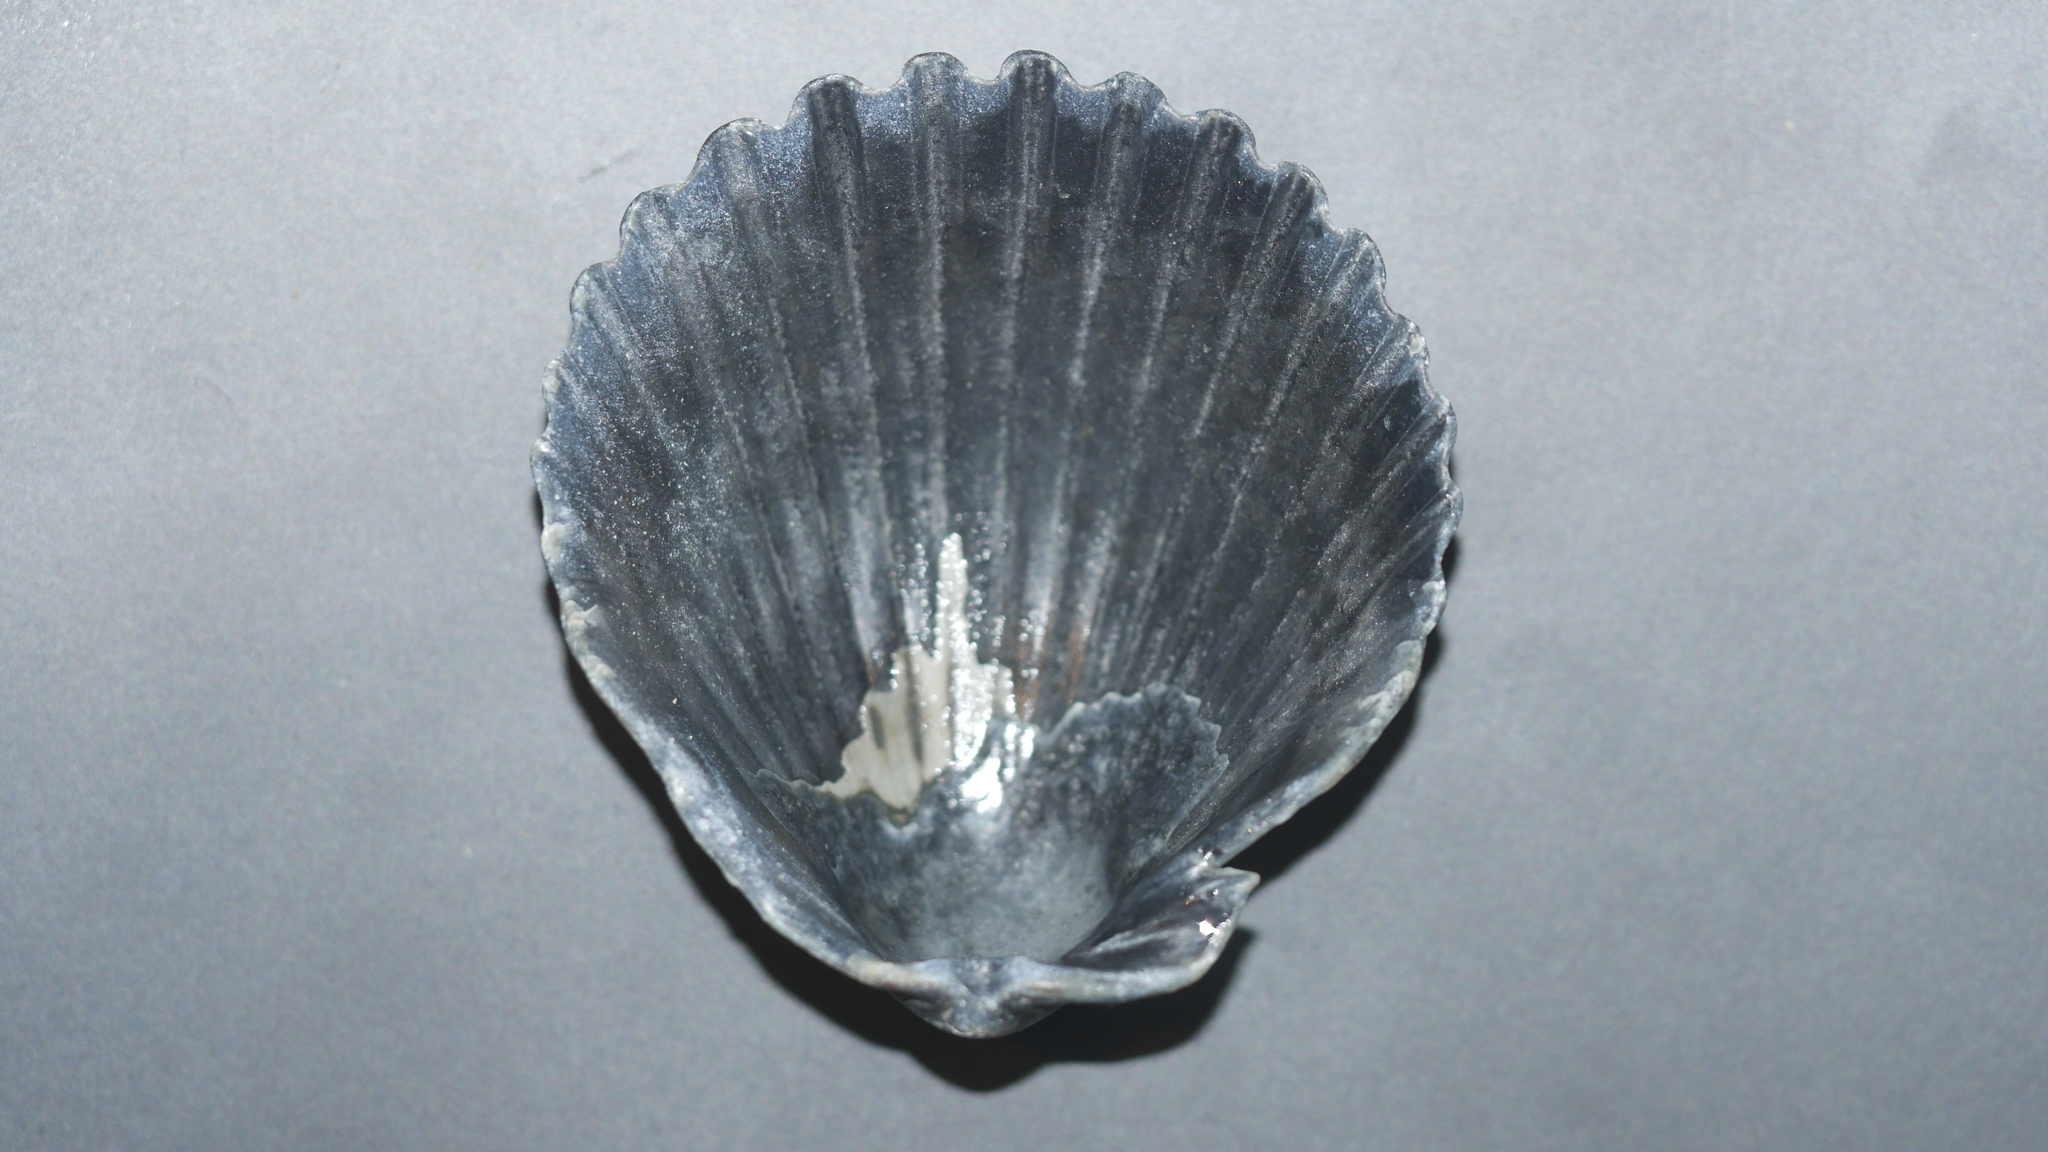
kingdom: Animalia
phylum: Mollusca
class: Bivalvia
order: Pectinida
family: Pectinidae
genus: Argopecten
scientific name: Argopecten irradians
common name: Atlantic bay scallop
